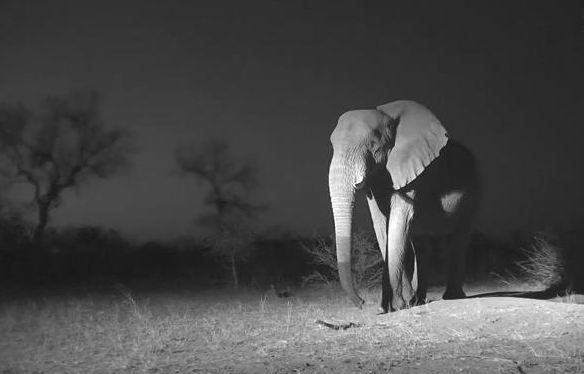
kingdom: Animalia
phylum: Chordata
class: Mammalia
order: Proboscidea
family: Elephantidae
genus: Loxodonta
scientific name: Loxodonta africana
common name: African elephant
